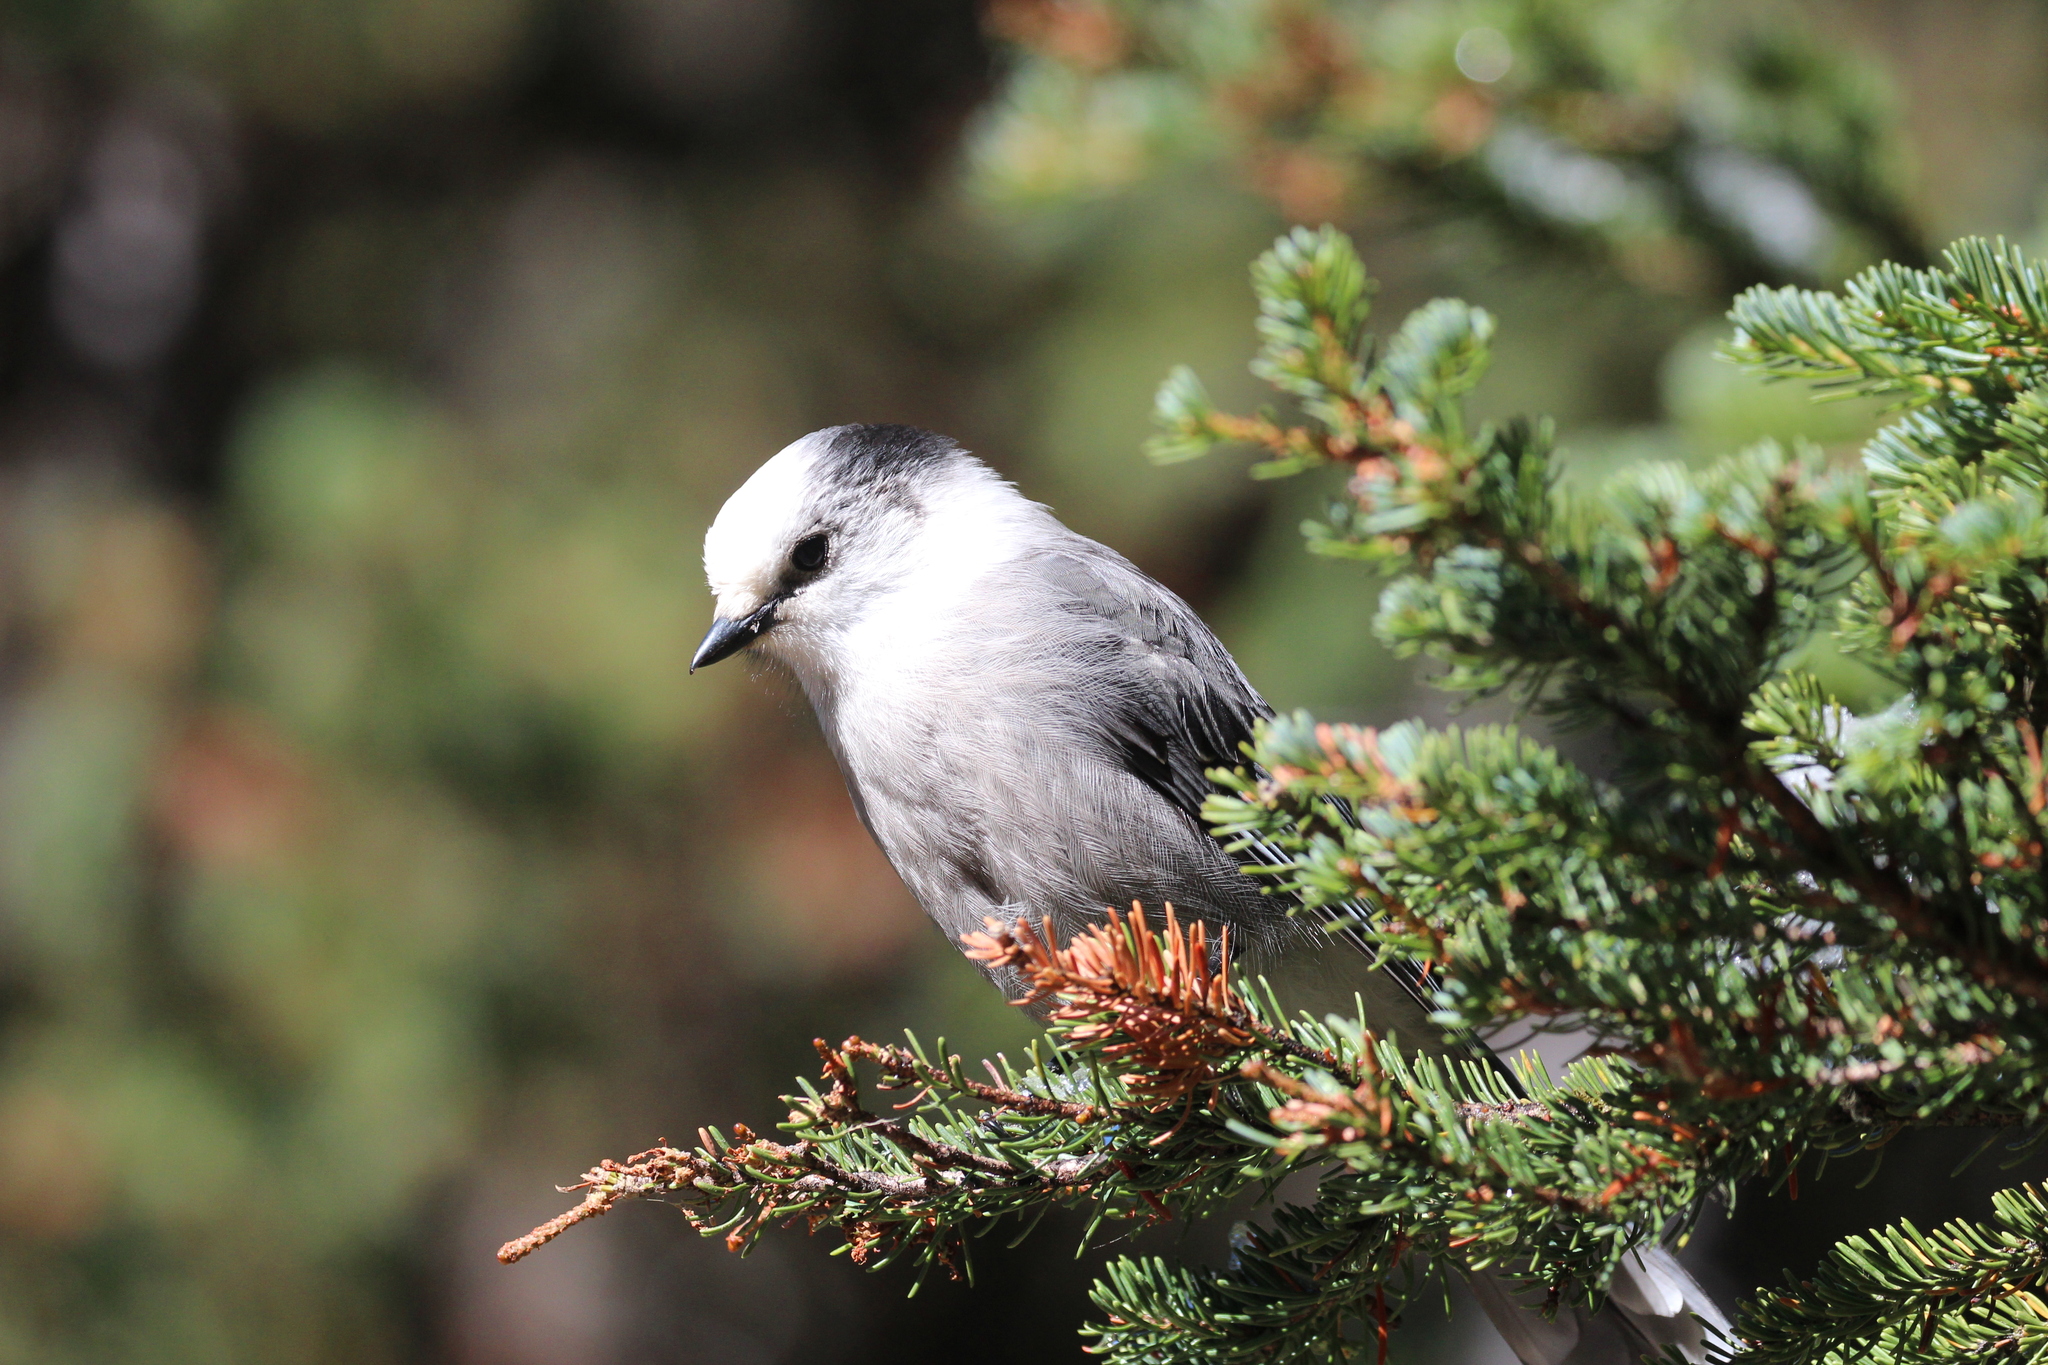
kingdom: Animalia
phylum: Chordata
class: Aves
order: Passeriformes
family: Corvidae
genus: Perisoreus
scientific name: Perisoreus canadensis
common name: Gray jay
